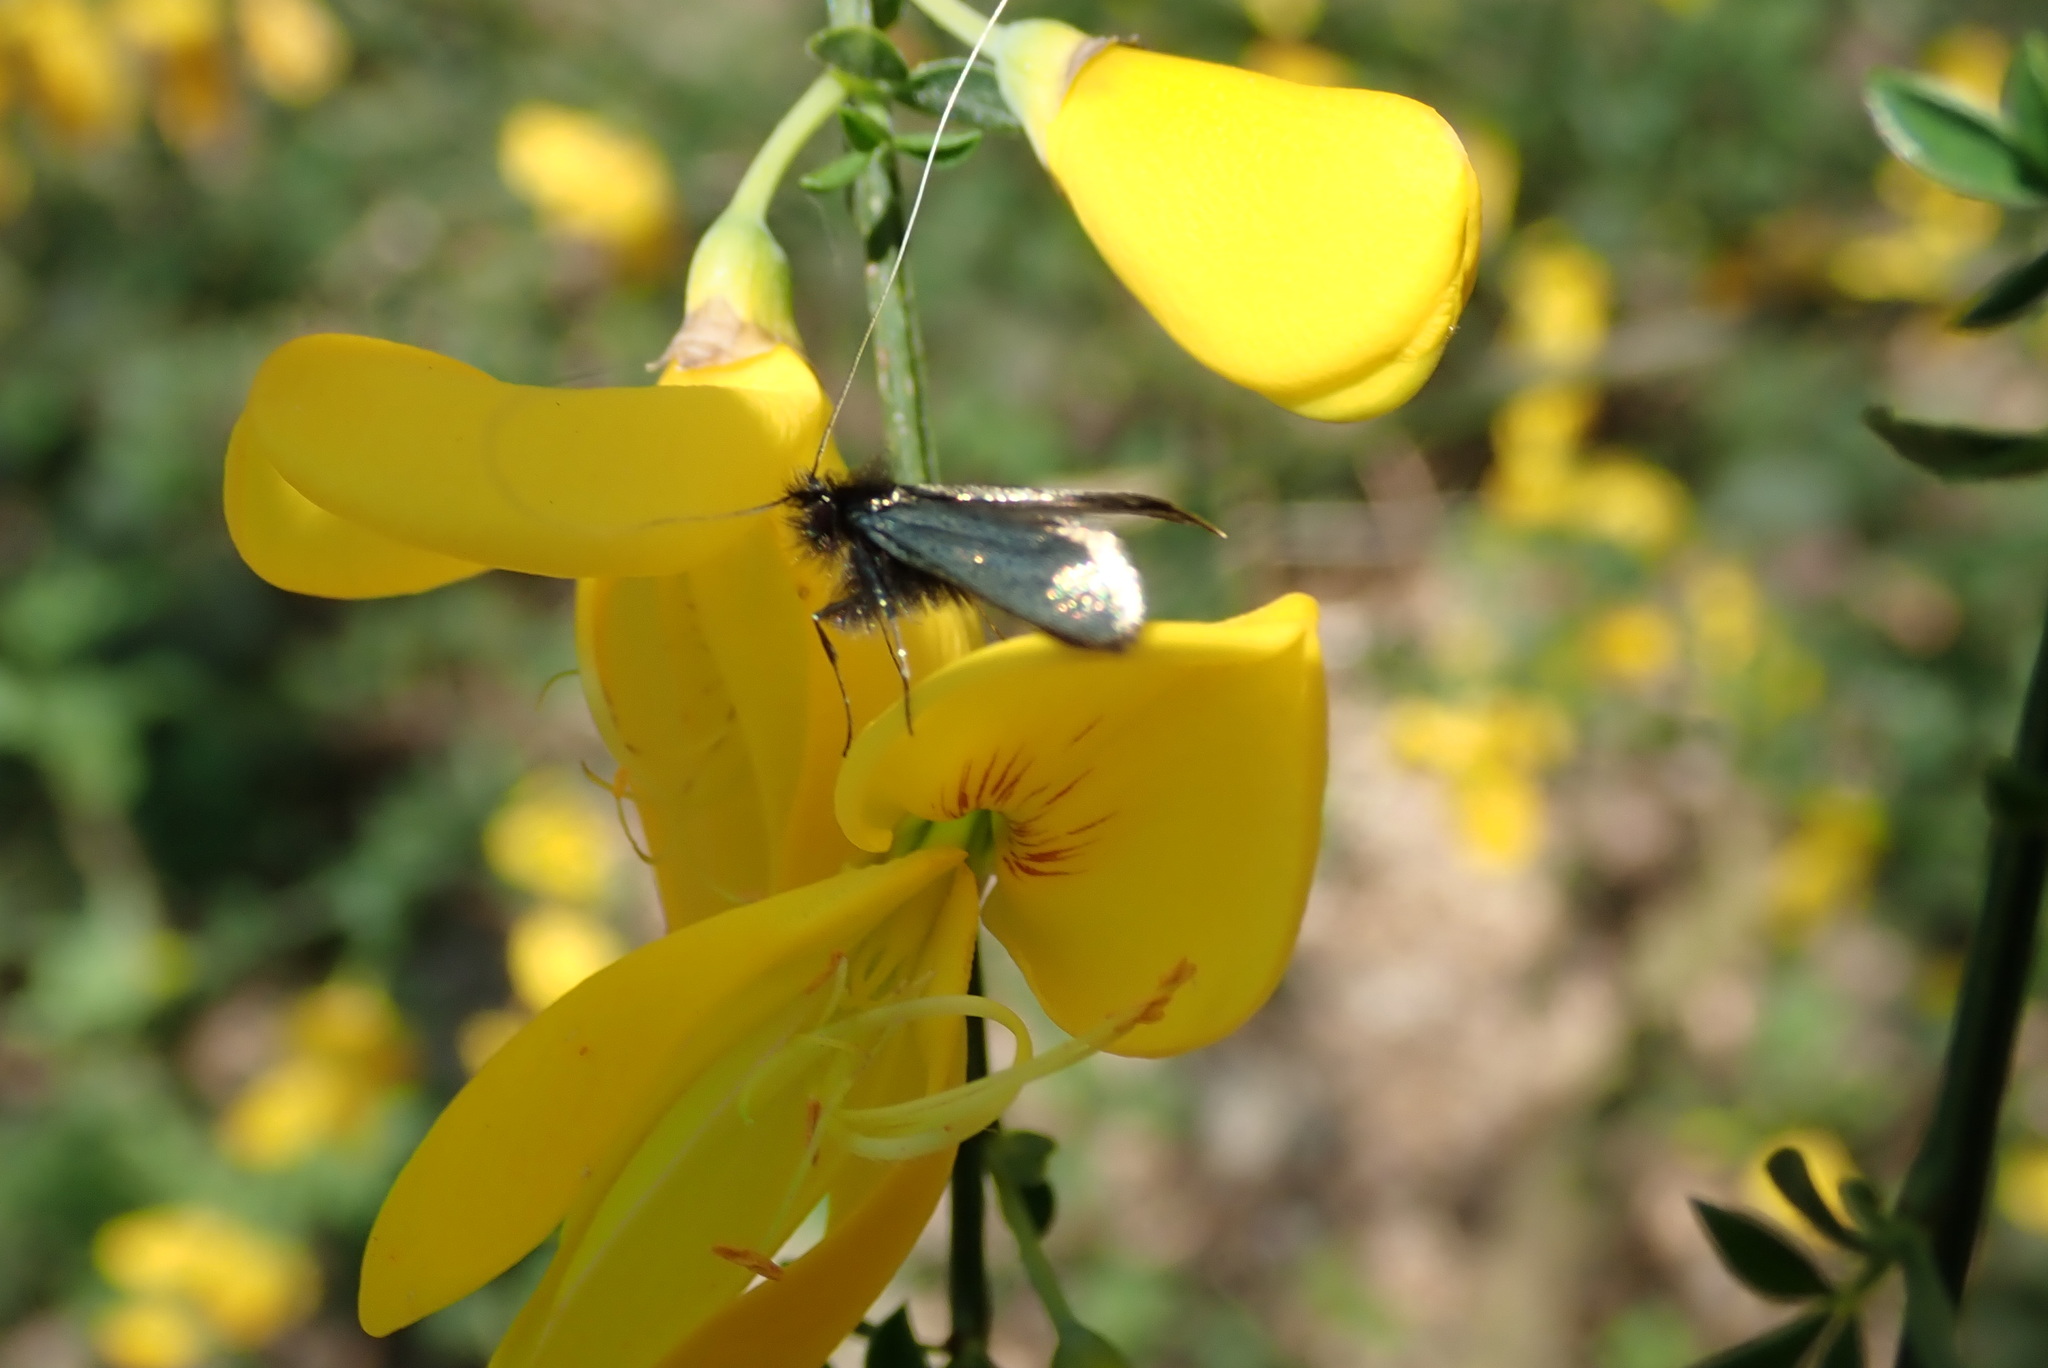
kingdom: Animalia
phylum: Arthropoda
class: Insecta
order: Lepidoptera
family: Adelidae
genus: Adela
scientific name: Adela viridella
